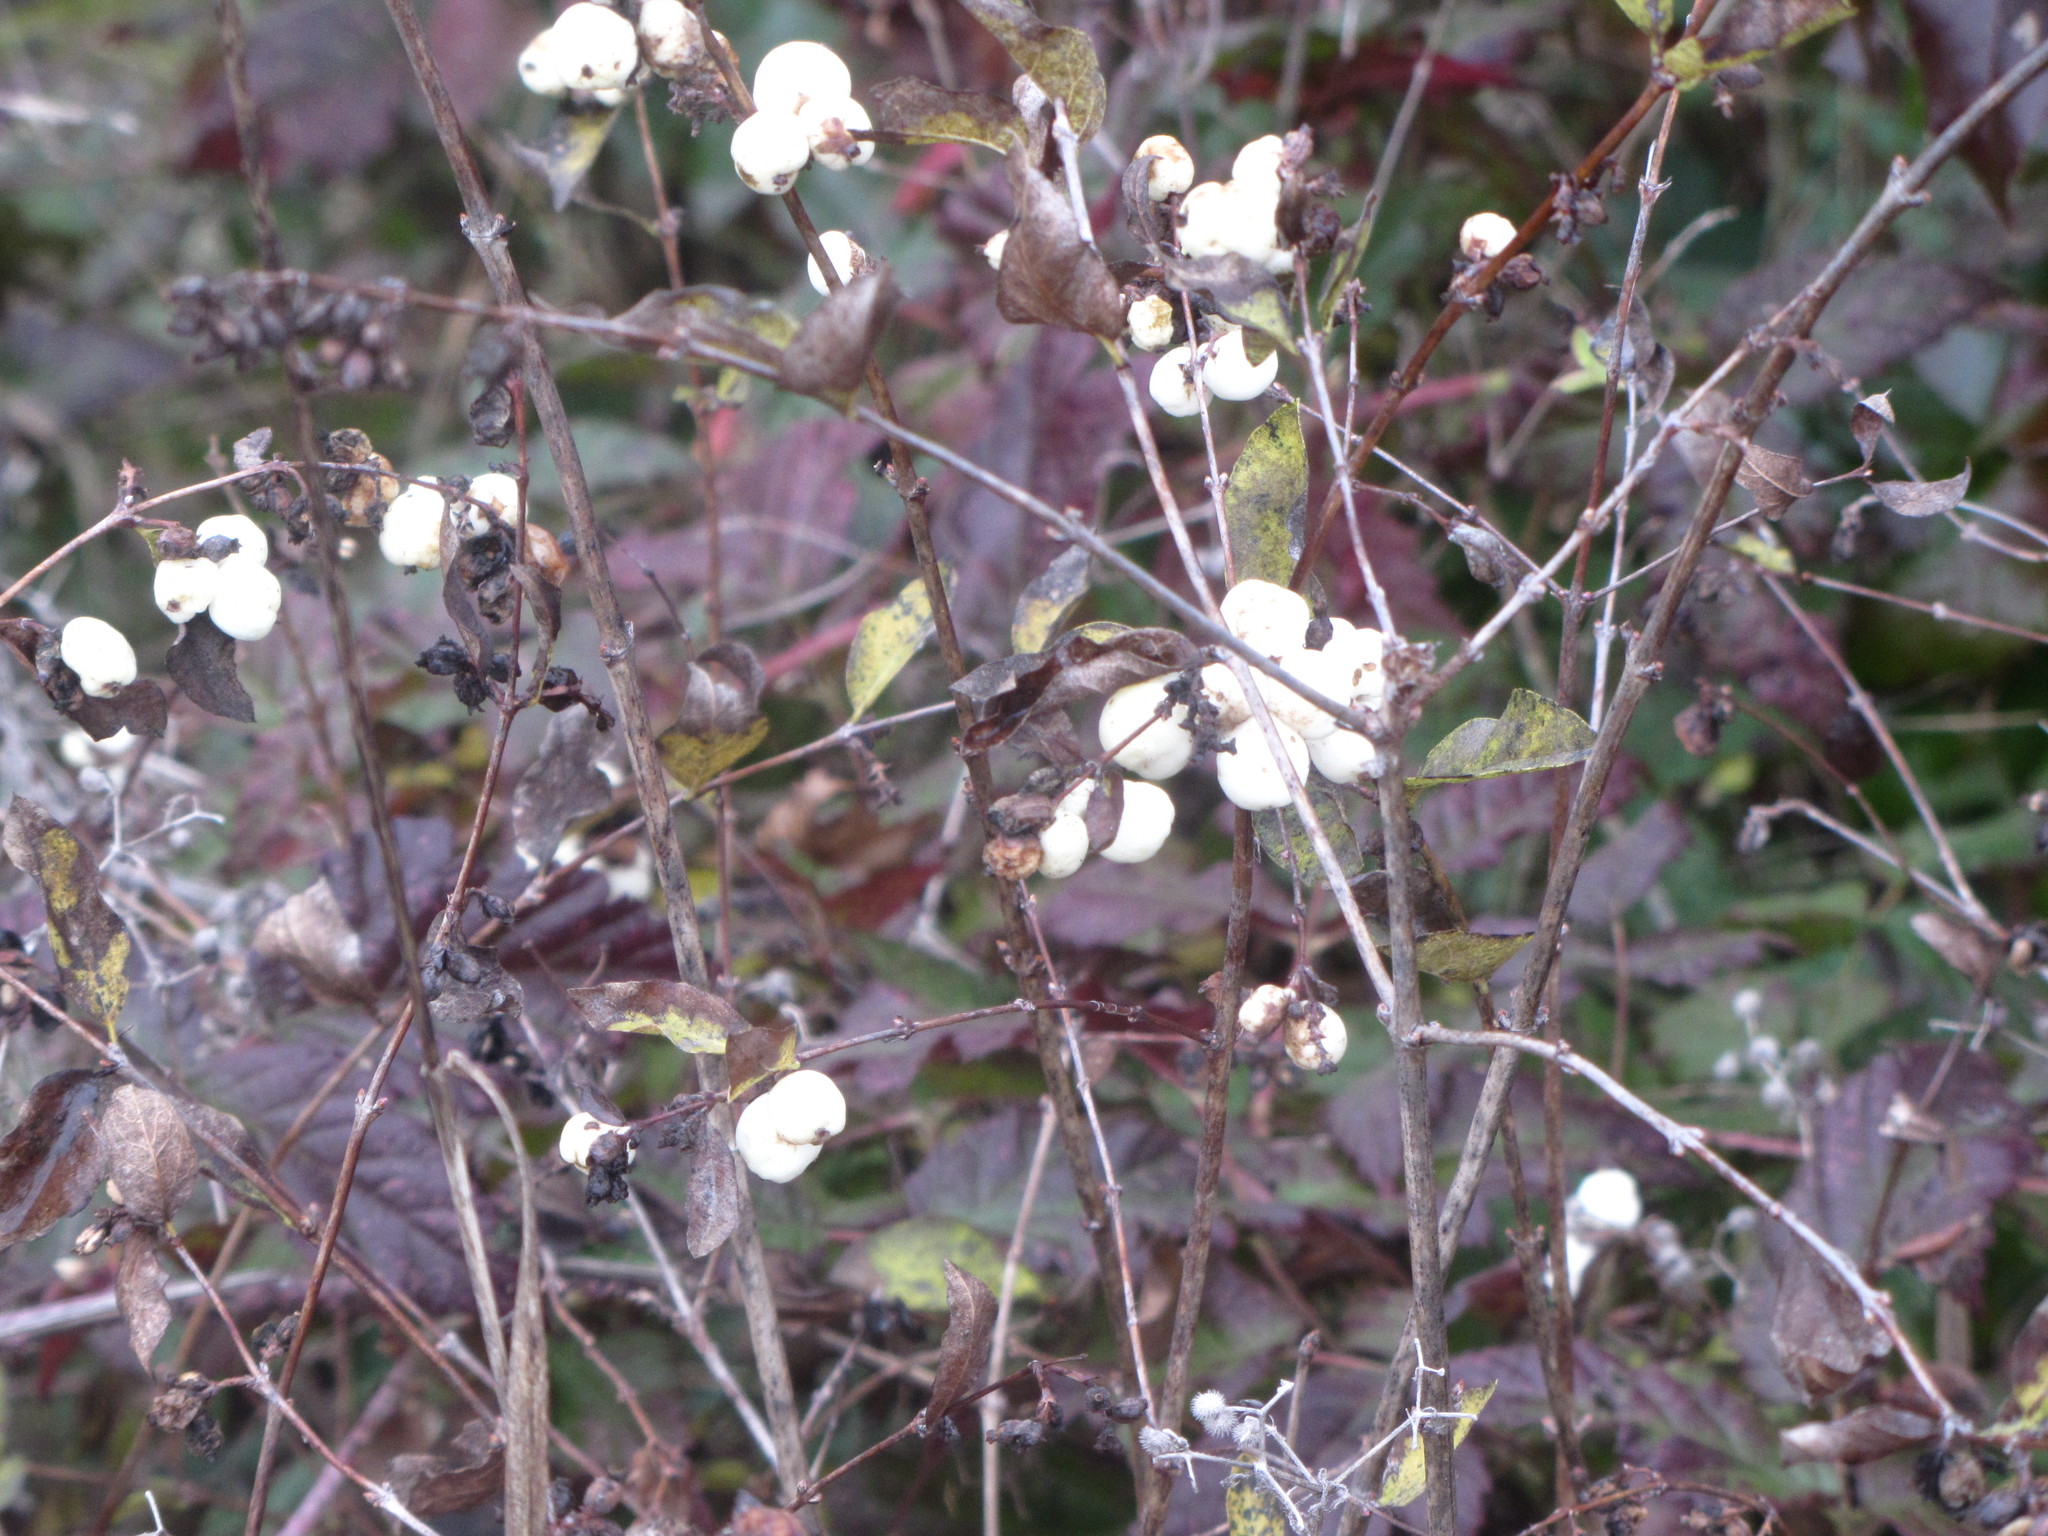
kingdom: Plantae
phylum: Tracheophyta
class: Magnoliopsida
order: Dipsacales
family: Caprifoliaceae
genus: Symphoricarpos
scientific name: Symphoricarpos albus
